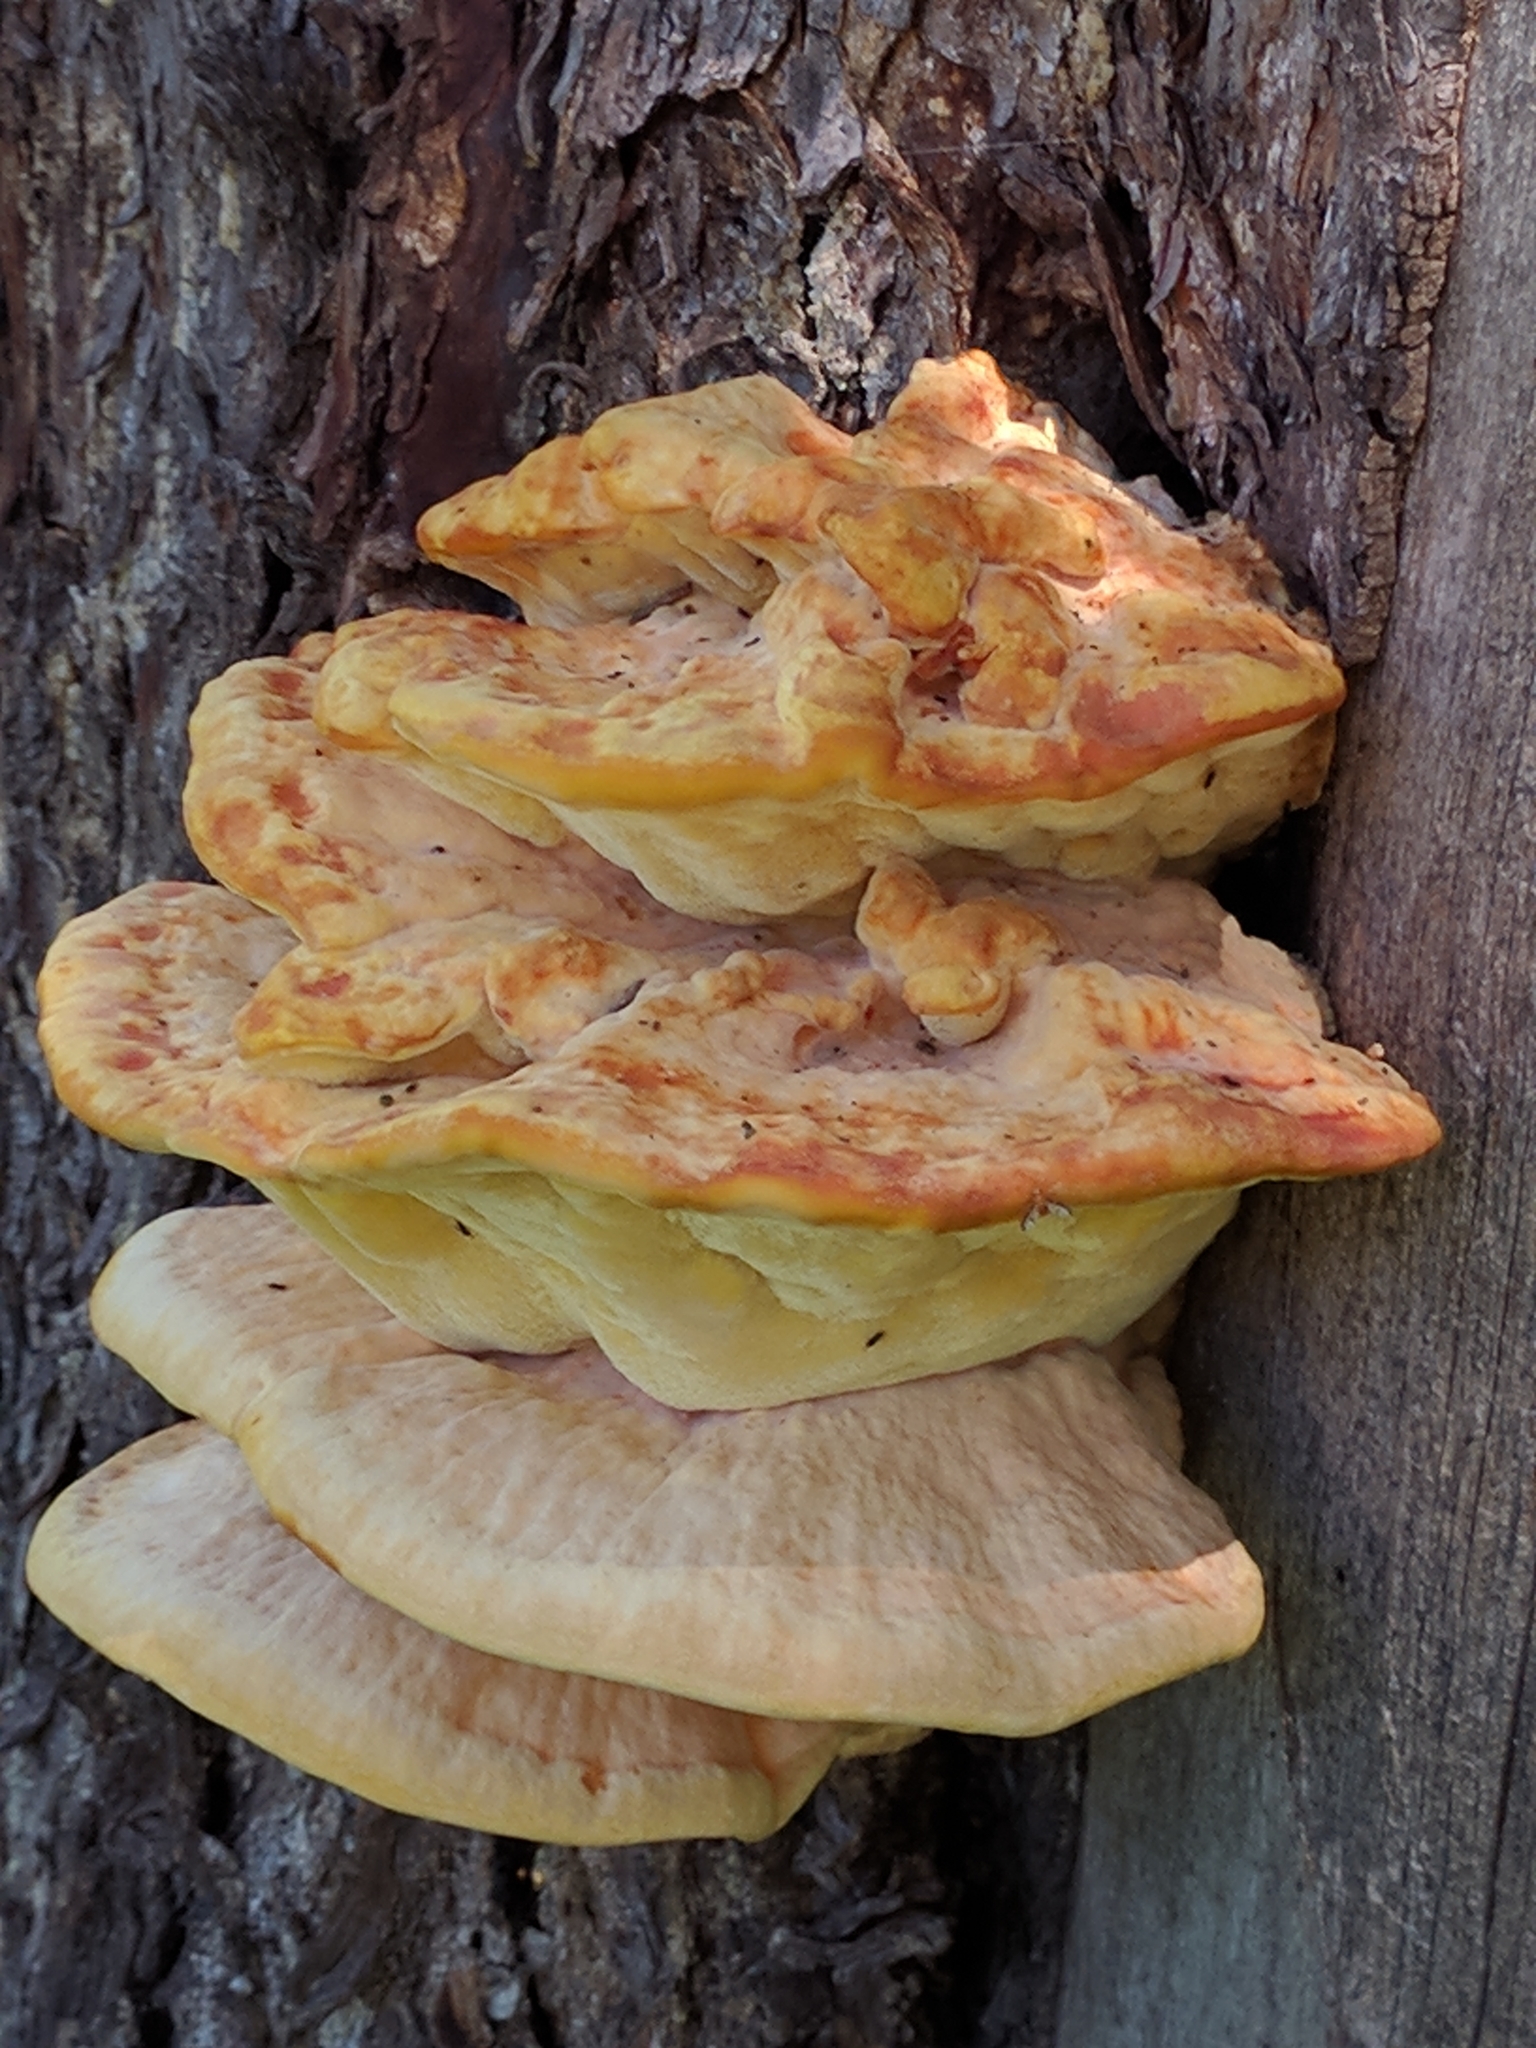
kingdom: Fungi
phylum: Basidiomycota
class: Agaricomycetes
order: Polyporales
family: Laetiporaceae
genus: Laetiporus
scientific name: Laetiporus conifericola
